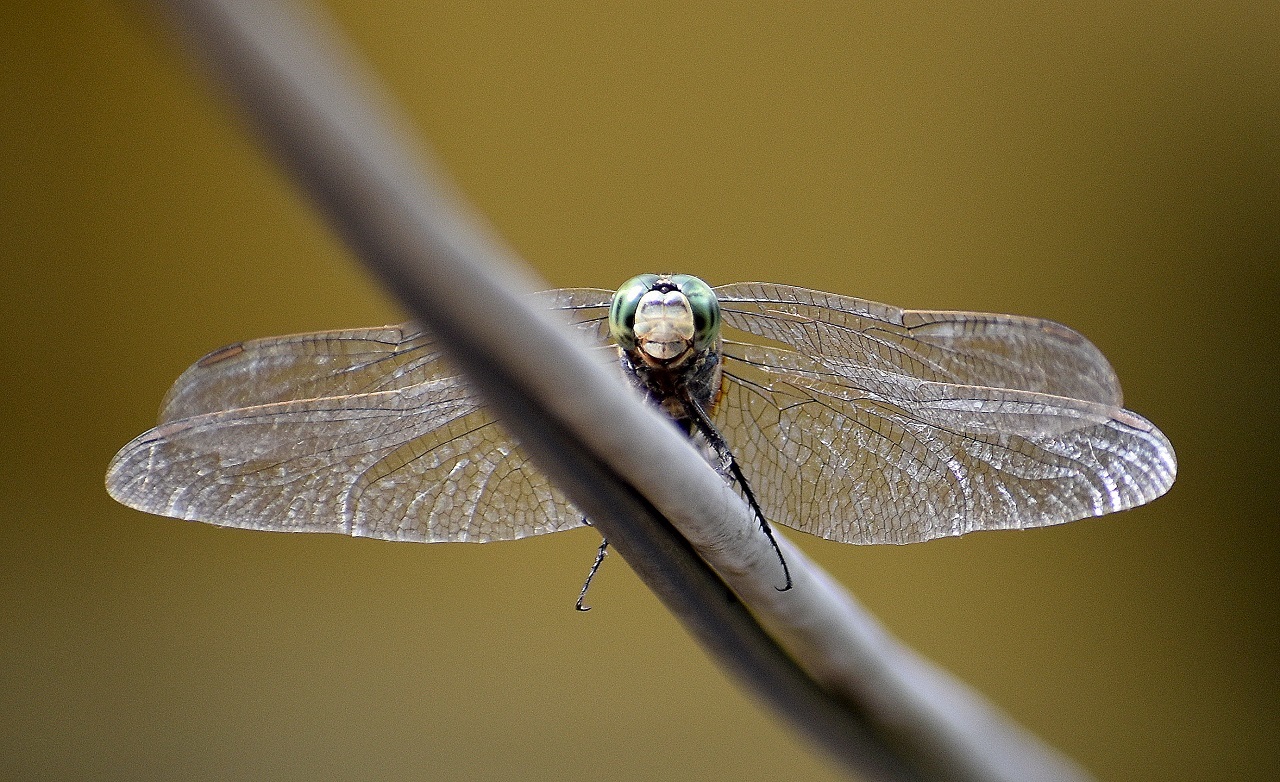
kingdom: Animalia
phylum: Arthropoda
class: Insecta
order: Odonata
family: Libellulidae
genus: Orthetrum
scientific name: Orthetrum sabina
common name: Slender skimmer
